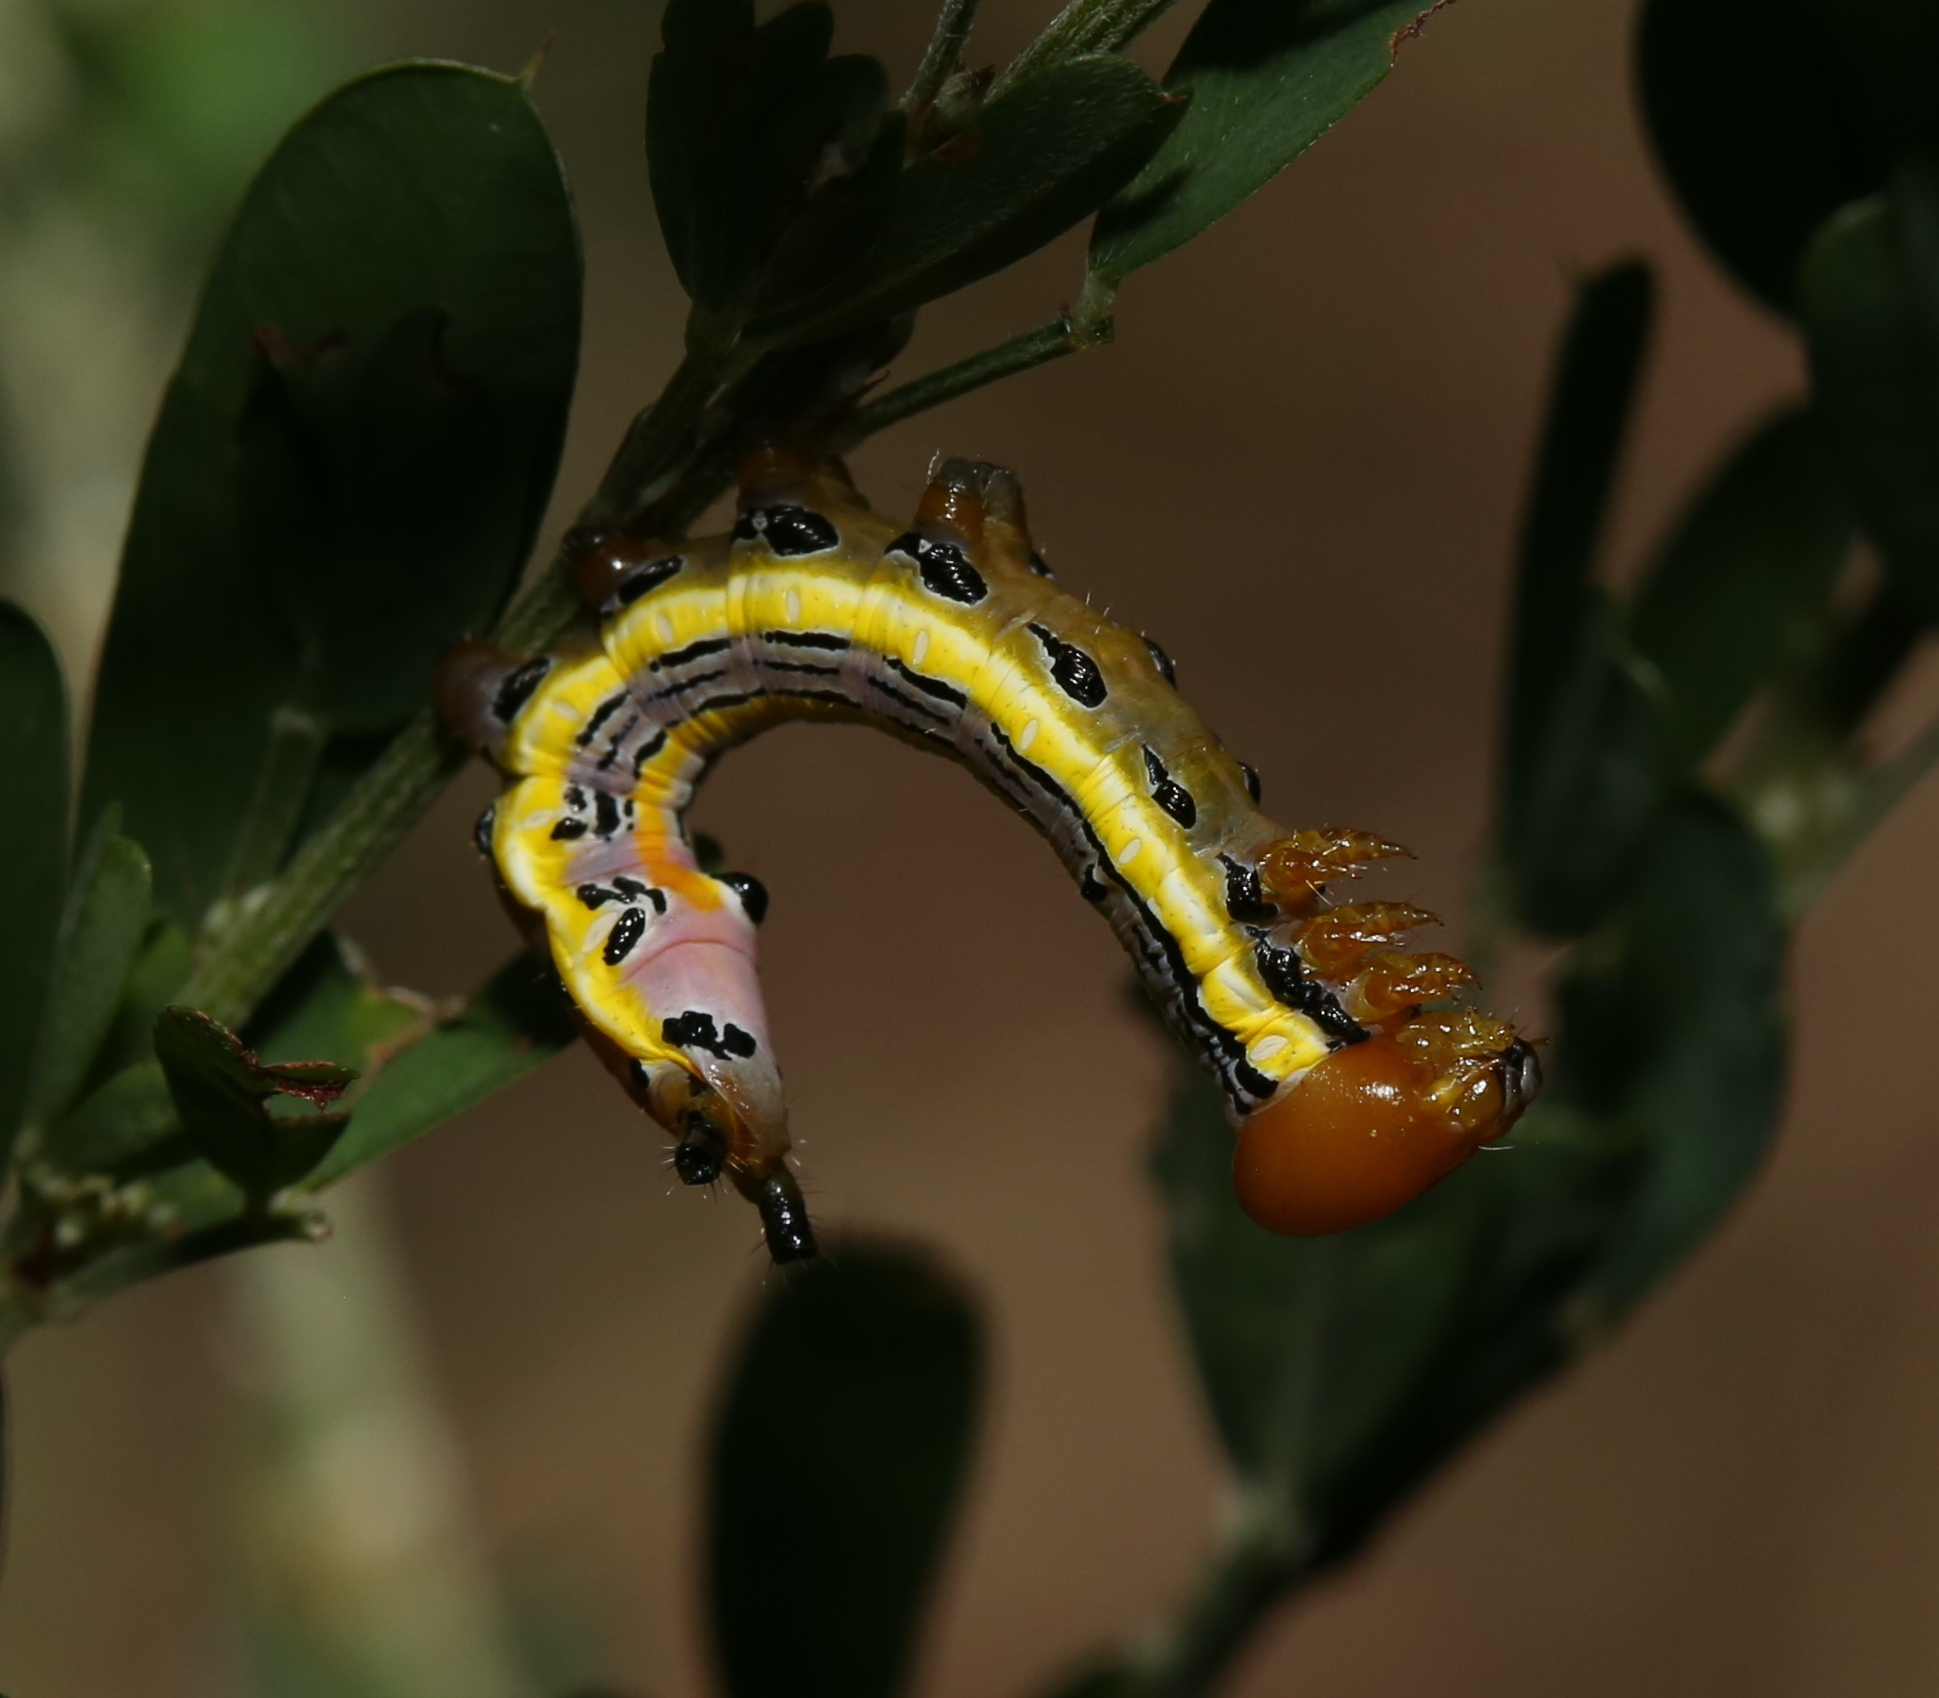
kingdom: Animalia
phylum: Arthropoda
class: Insecta
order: Lepidoptera
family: Notodontidae
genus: Dasylophia
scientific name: Dasylophia anguina
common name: Black-spotted prominent
